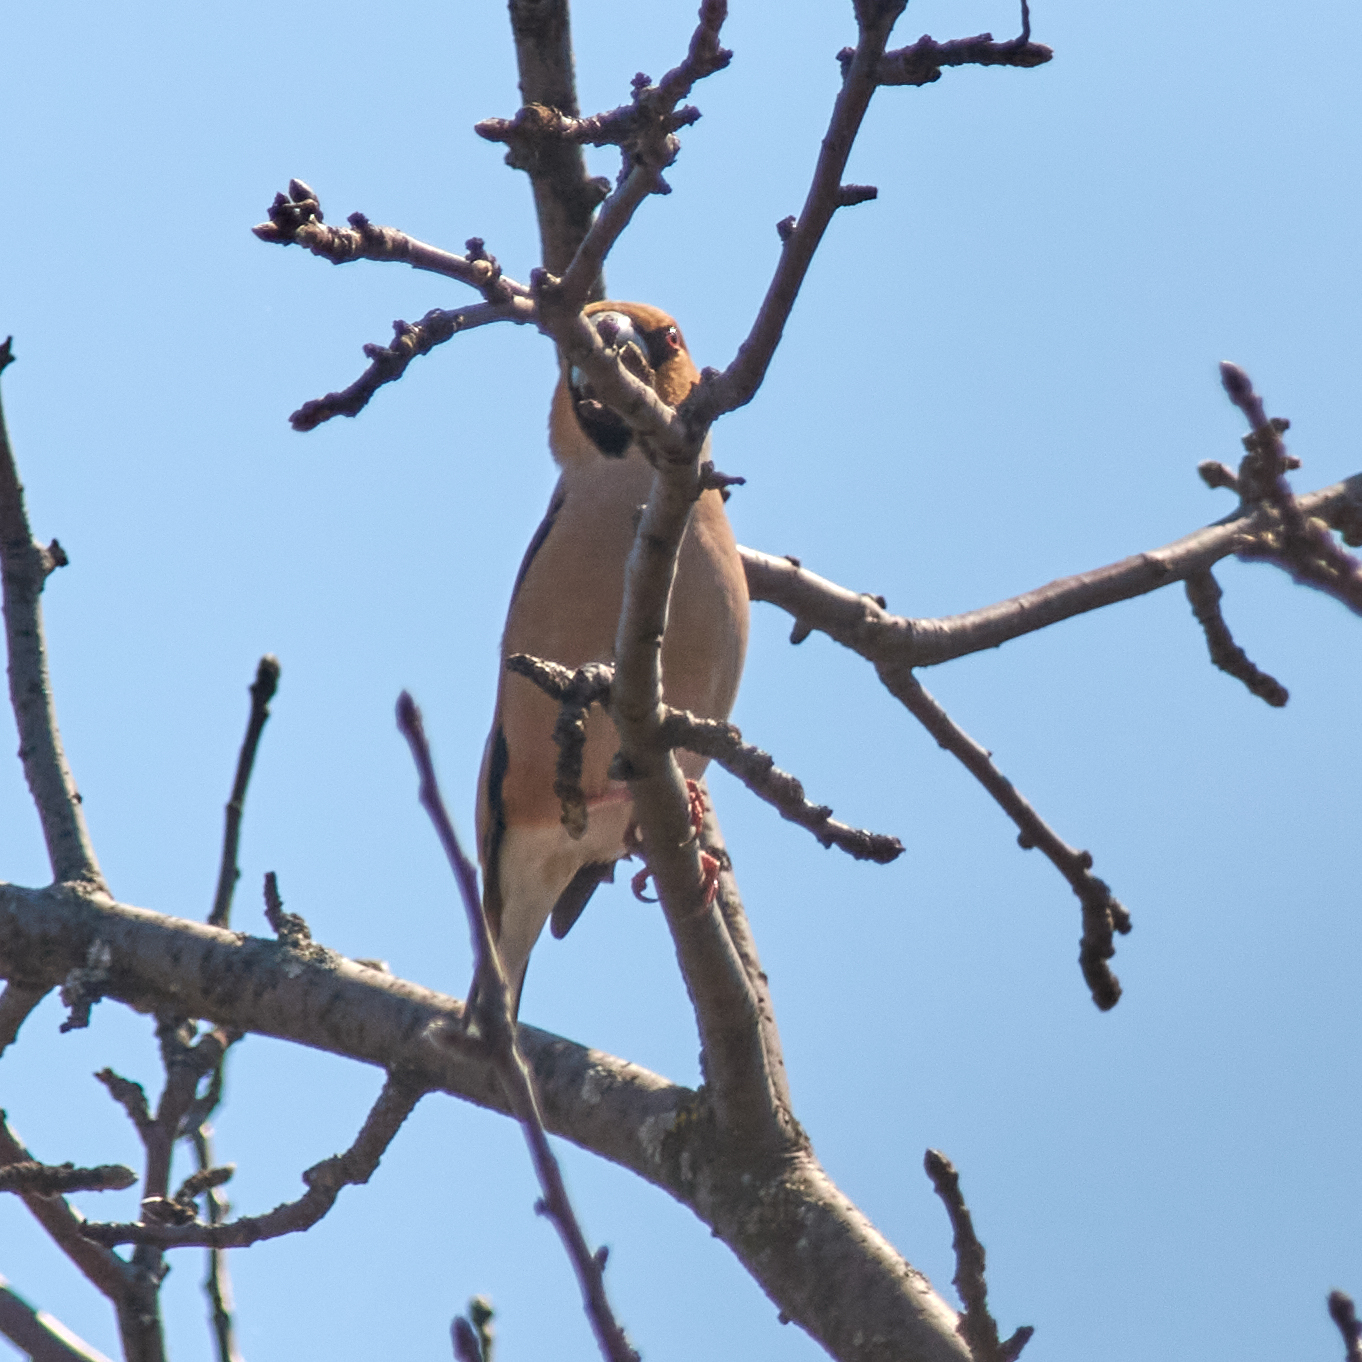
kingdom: Animalia
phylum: Chordata
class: Aves
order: Passeriformes
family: Fringillidae
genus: Coccothraustes
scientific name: Coccothraustes coccothraustes
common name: Hawfinch
